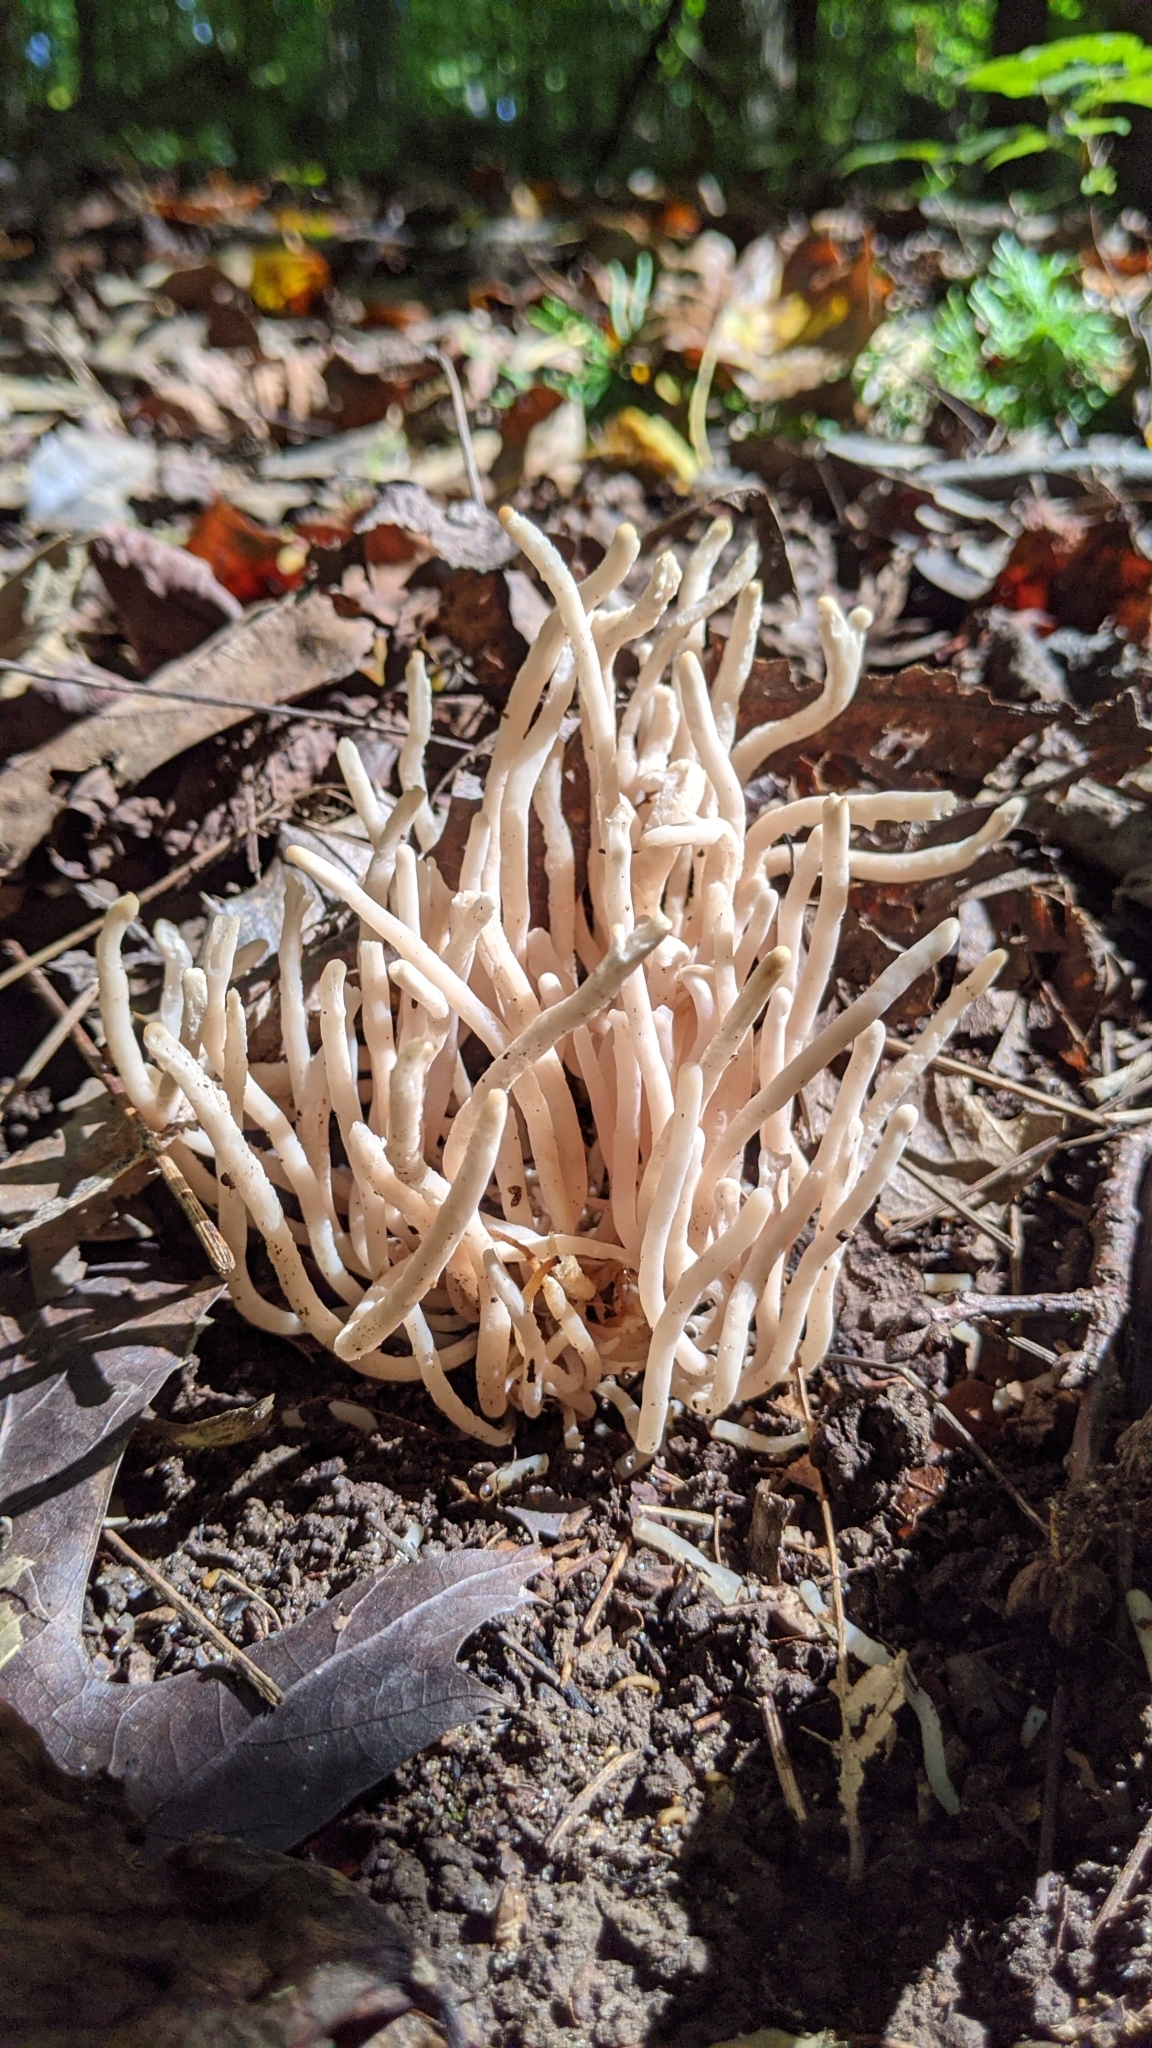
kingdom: Fungi
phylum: Basidiomycota
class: Agaricomycetes
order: Agaricales
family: Clavariaceae
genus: Clavaria
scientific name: Clavaria fumosa
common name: Smoky spindles
